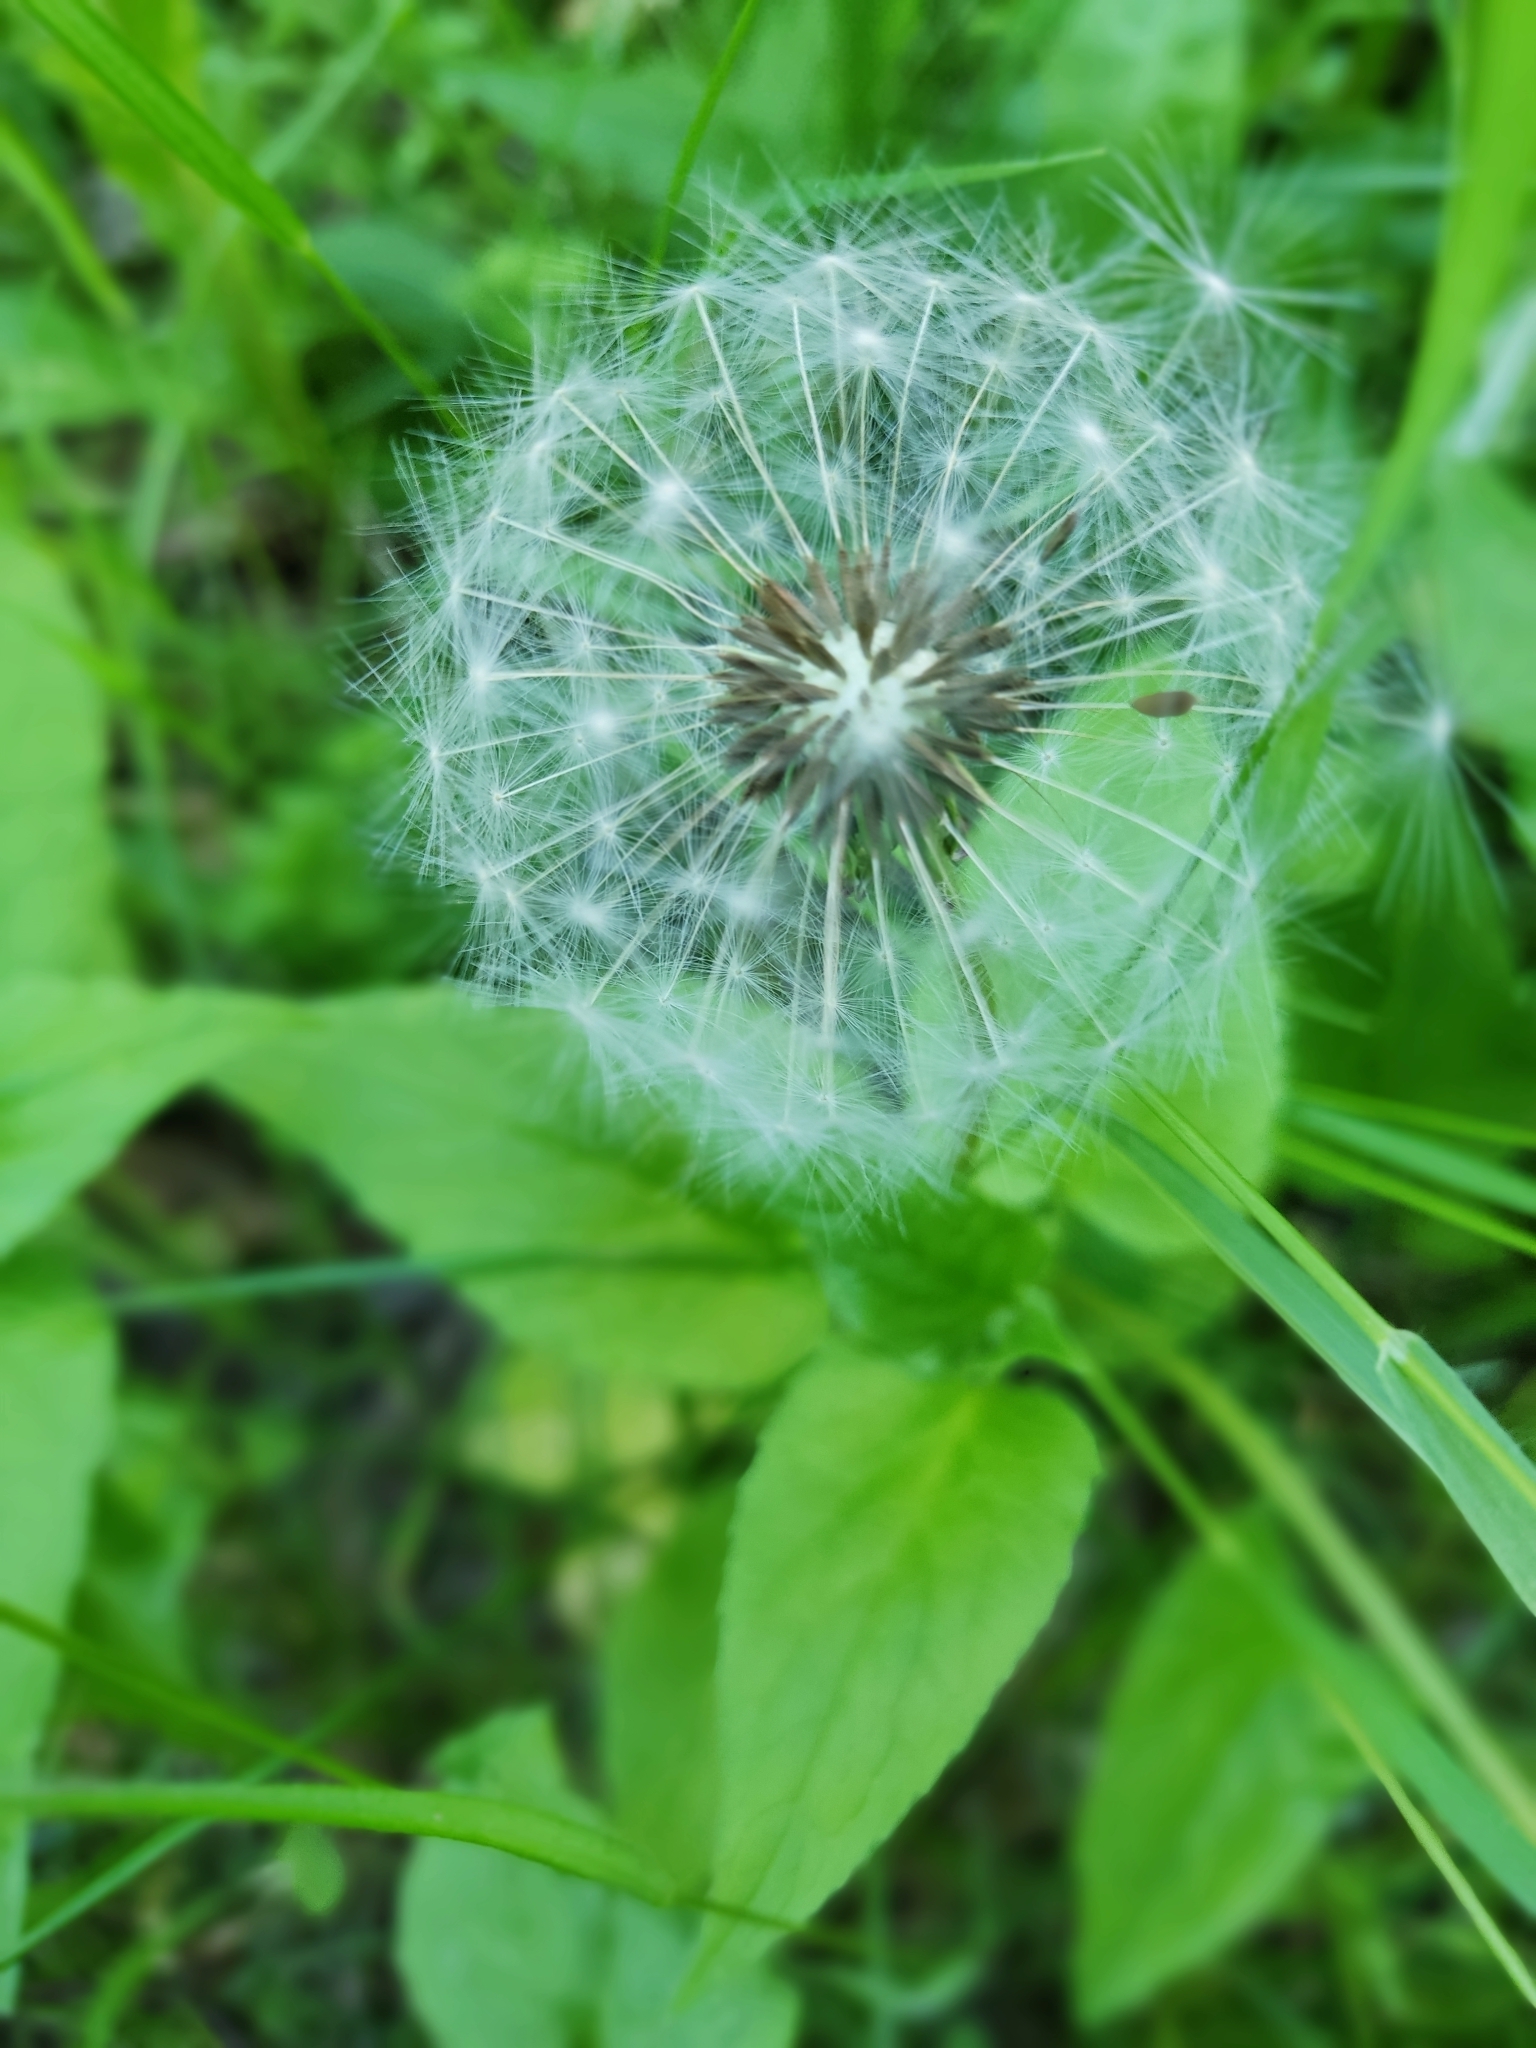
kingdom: Plantae
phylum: Tracheophyta
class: Magnoliopsida
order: Asterales
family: Asteraceae
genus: Taraxacum
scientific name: Taraxacum officinale
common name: Common dandelion
